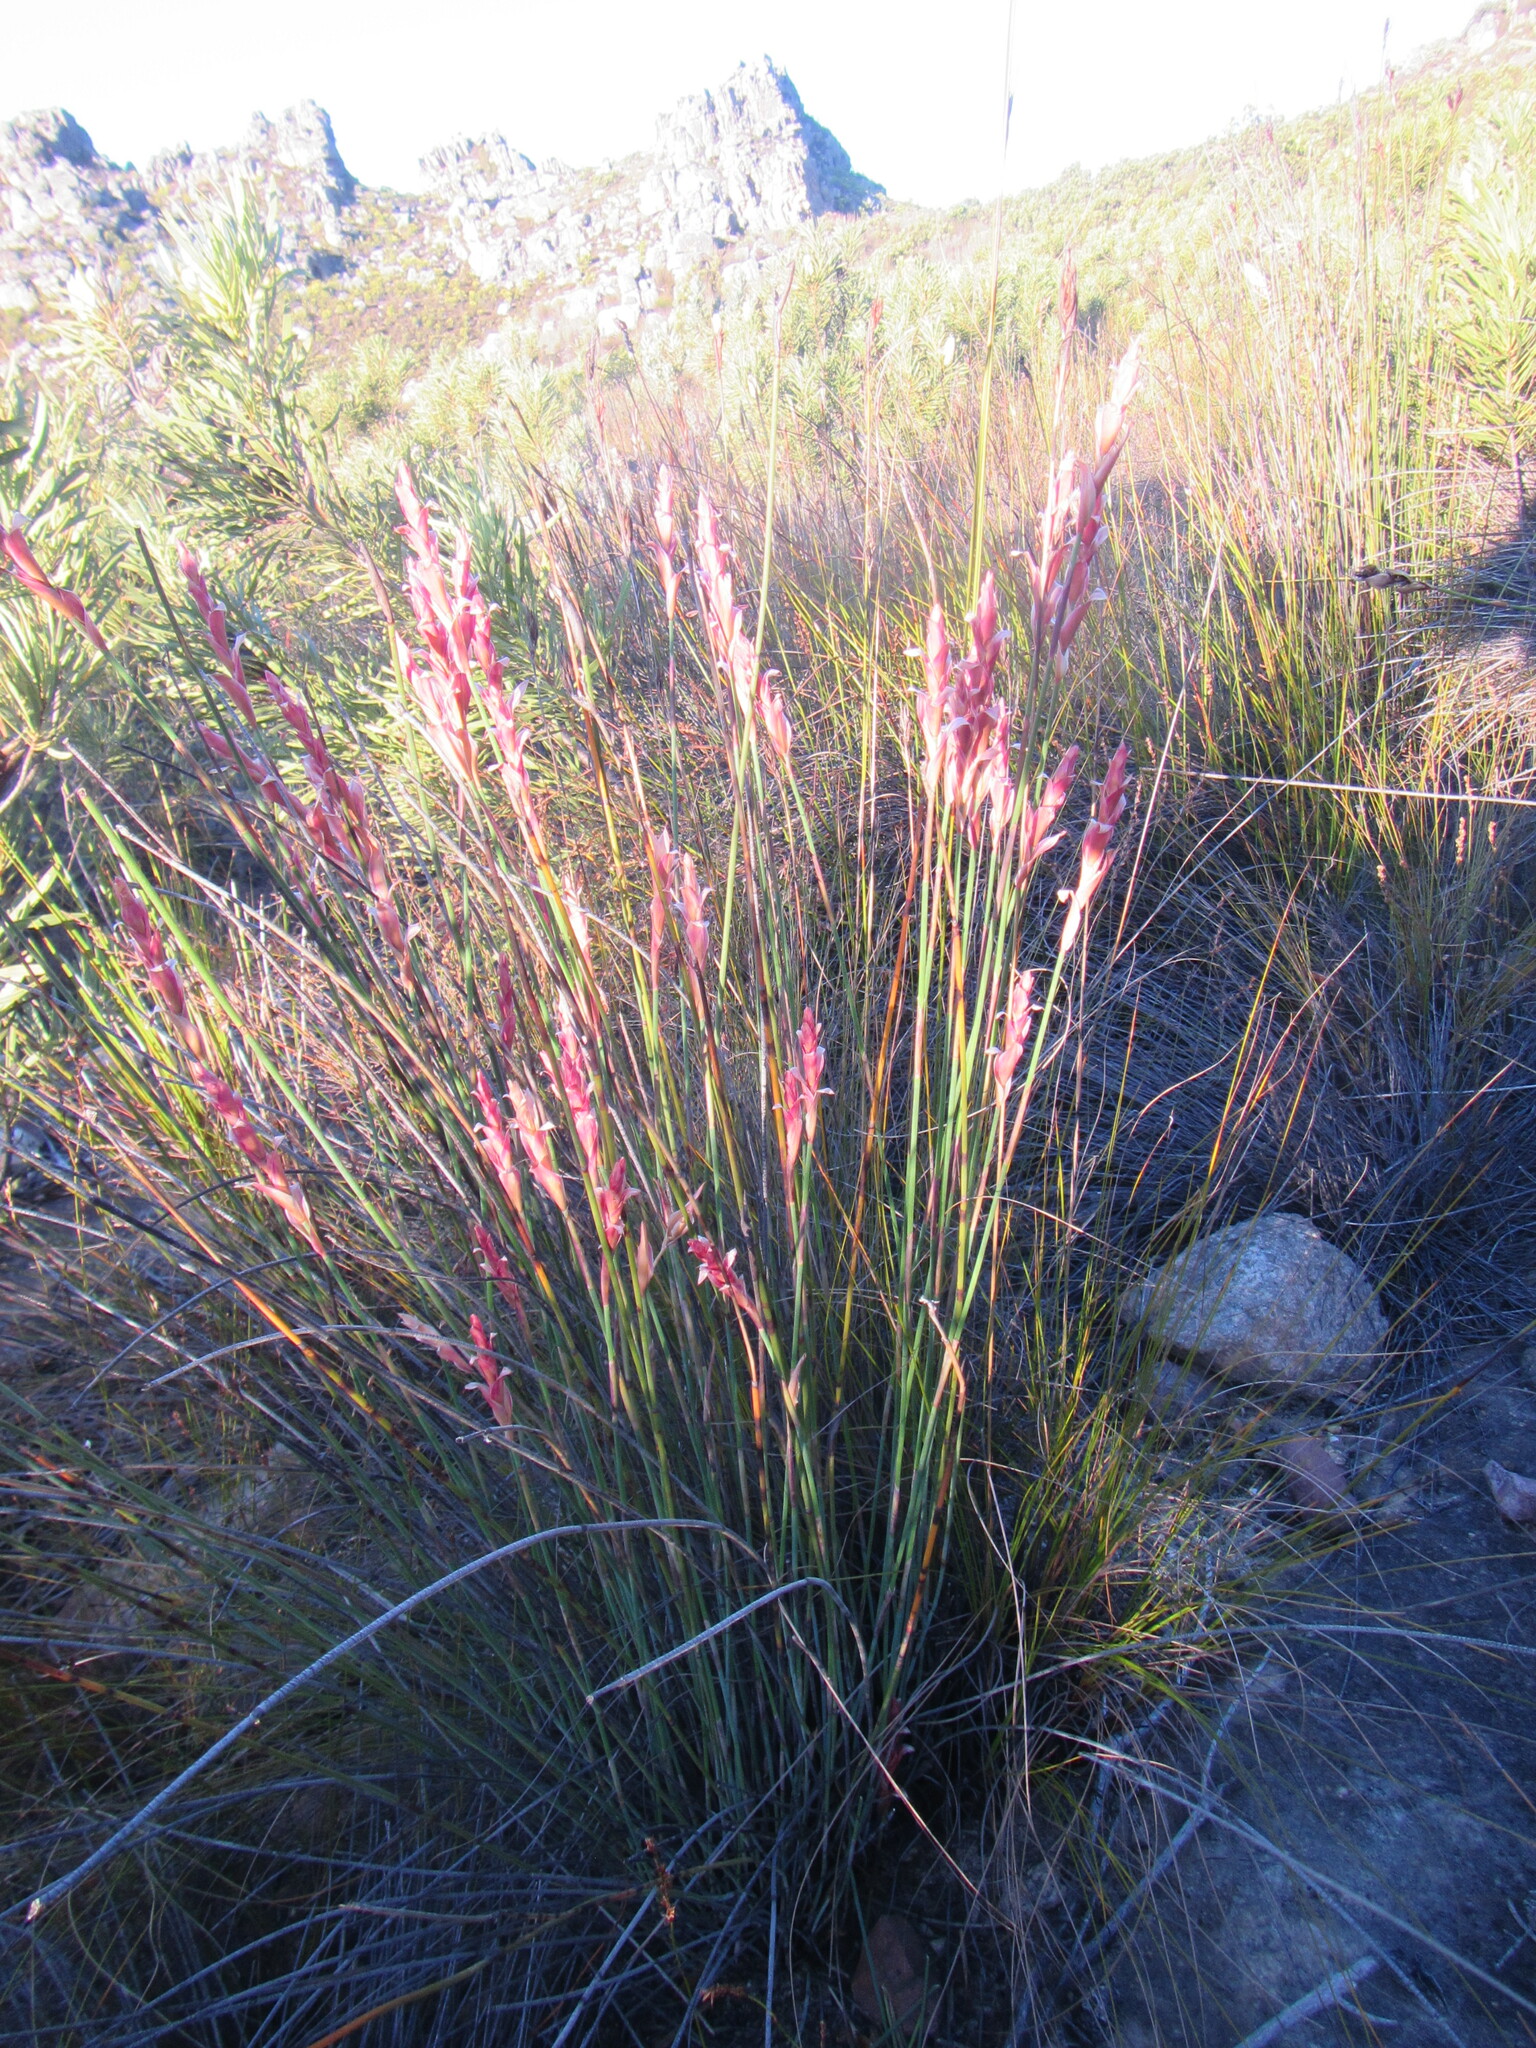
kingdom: Plantae
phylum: Tracheophyta
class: Liliopsida
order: Poales
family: Restionaceae
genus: Elegia
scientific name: Elegia stokoei
